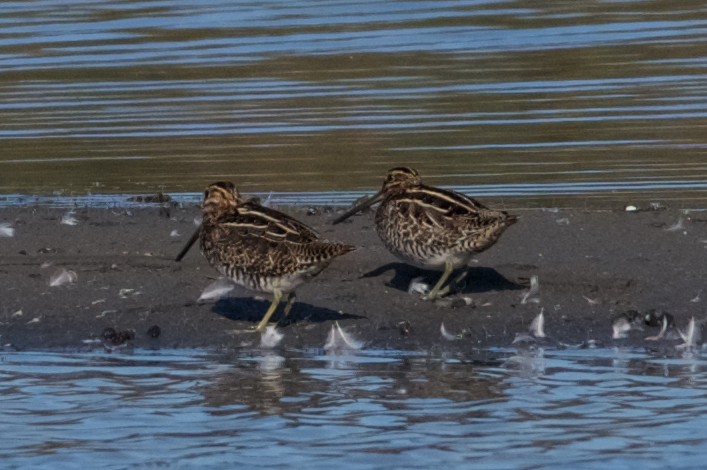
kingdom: Animalia
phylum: Chordata
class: Aves
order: Charadriiformes
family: Scolopacidae
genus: Gallinago
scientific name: Gallinago delicata
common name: Wilson's snipe
